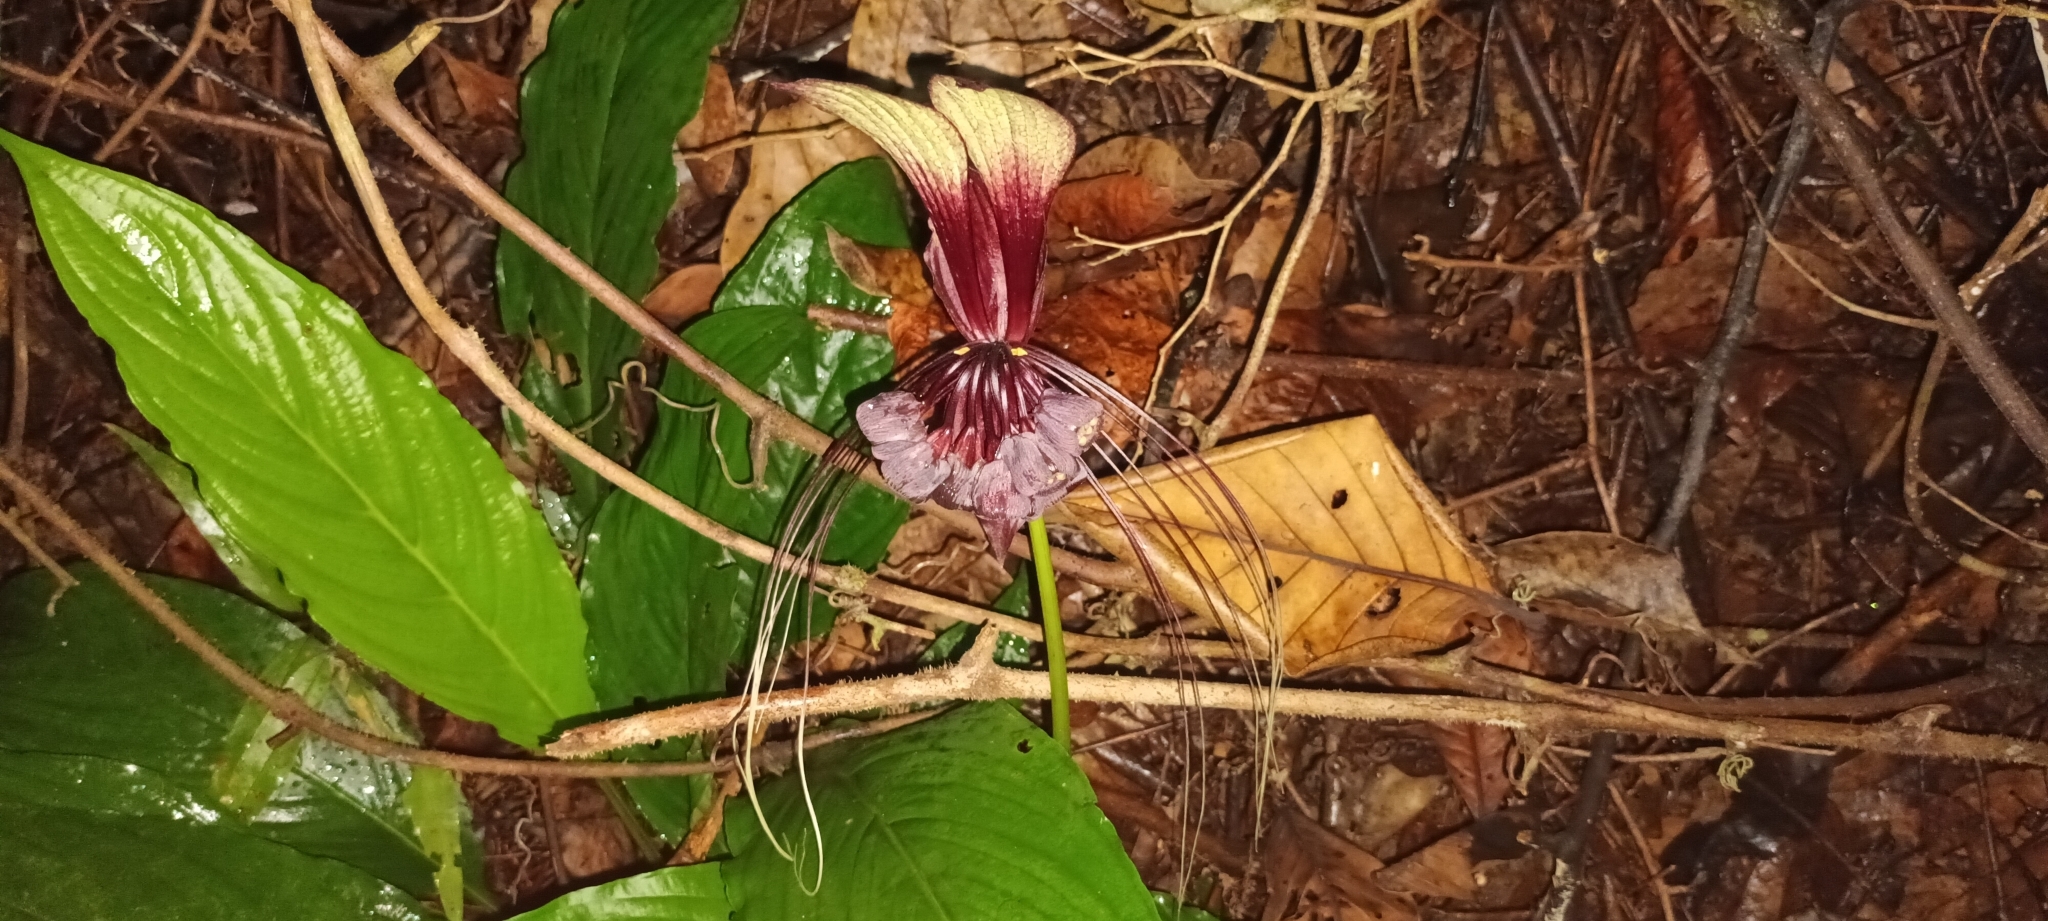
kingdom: Plantae
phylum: Tracheophyta
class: Liliopsida
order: Dioscoreales
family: Dioscoreaceae
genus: Tacca
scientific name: Tacca cristata
